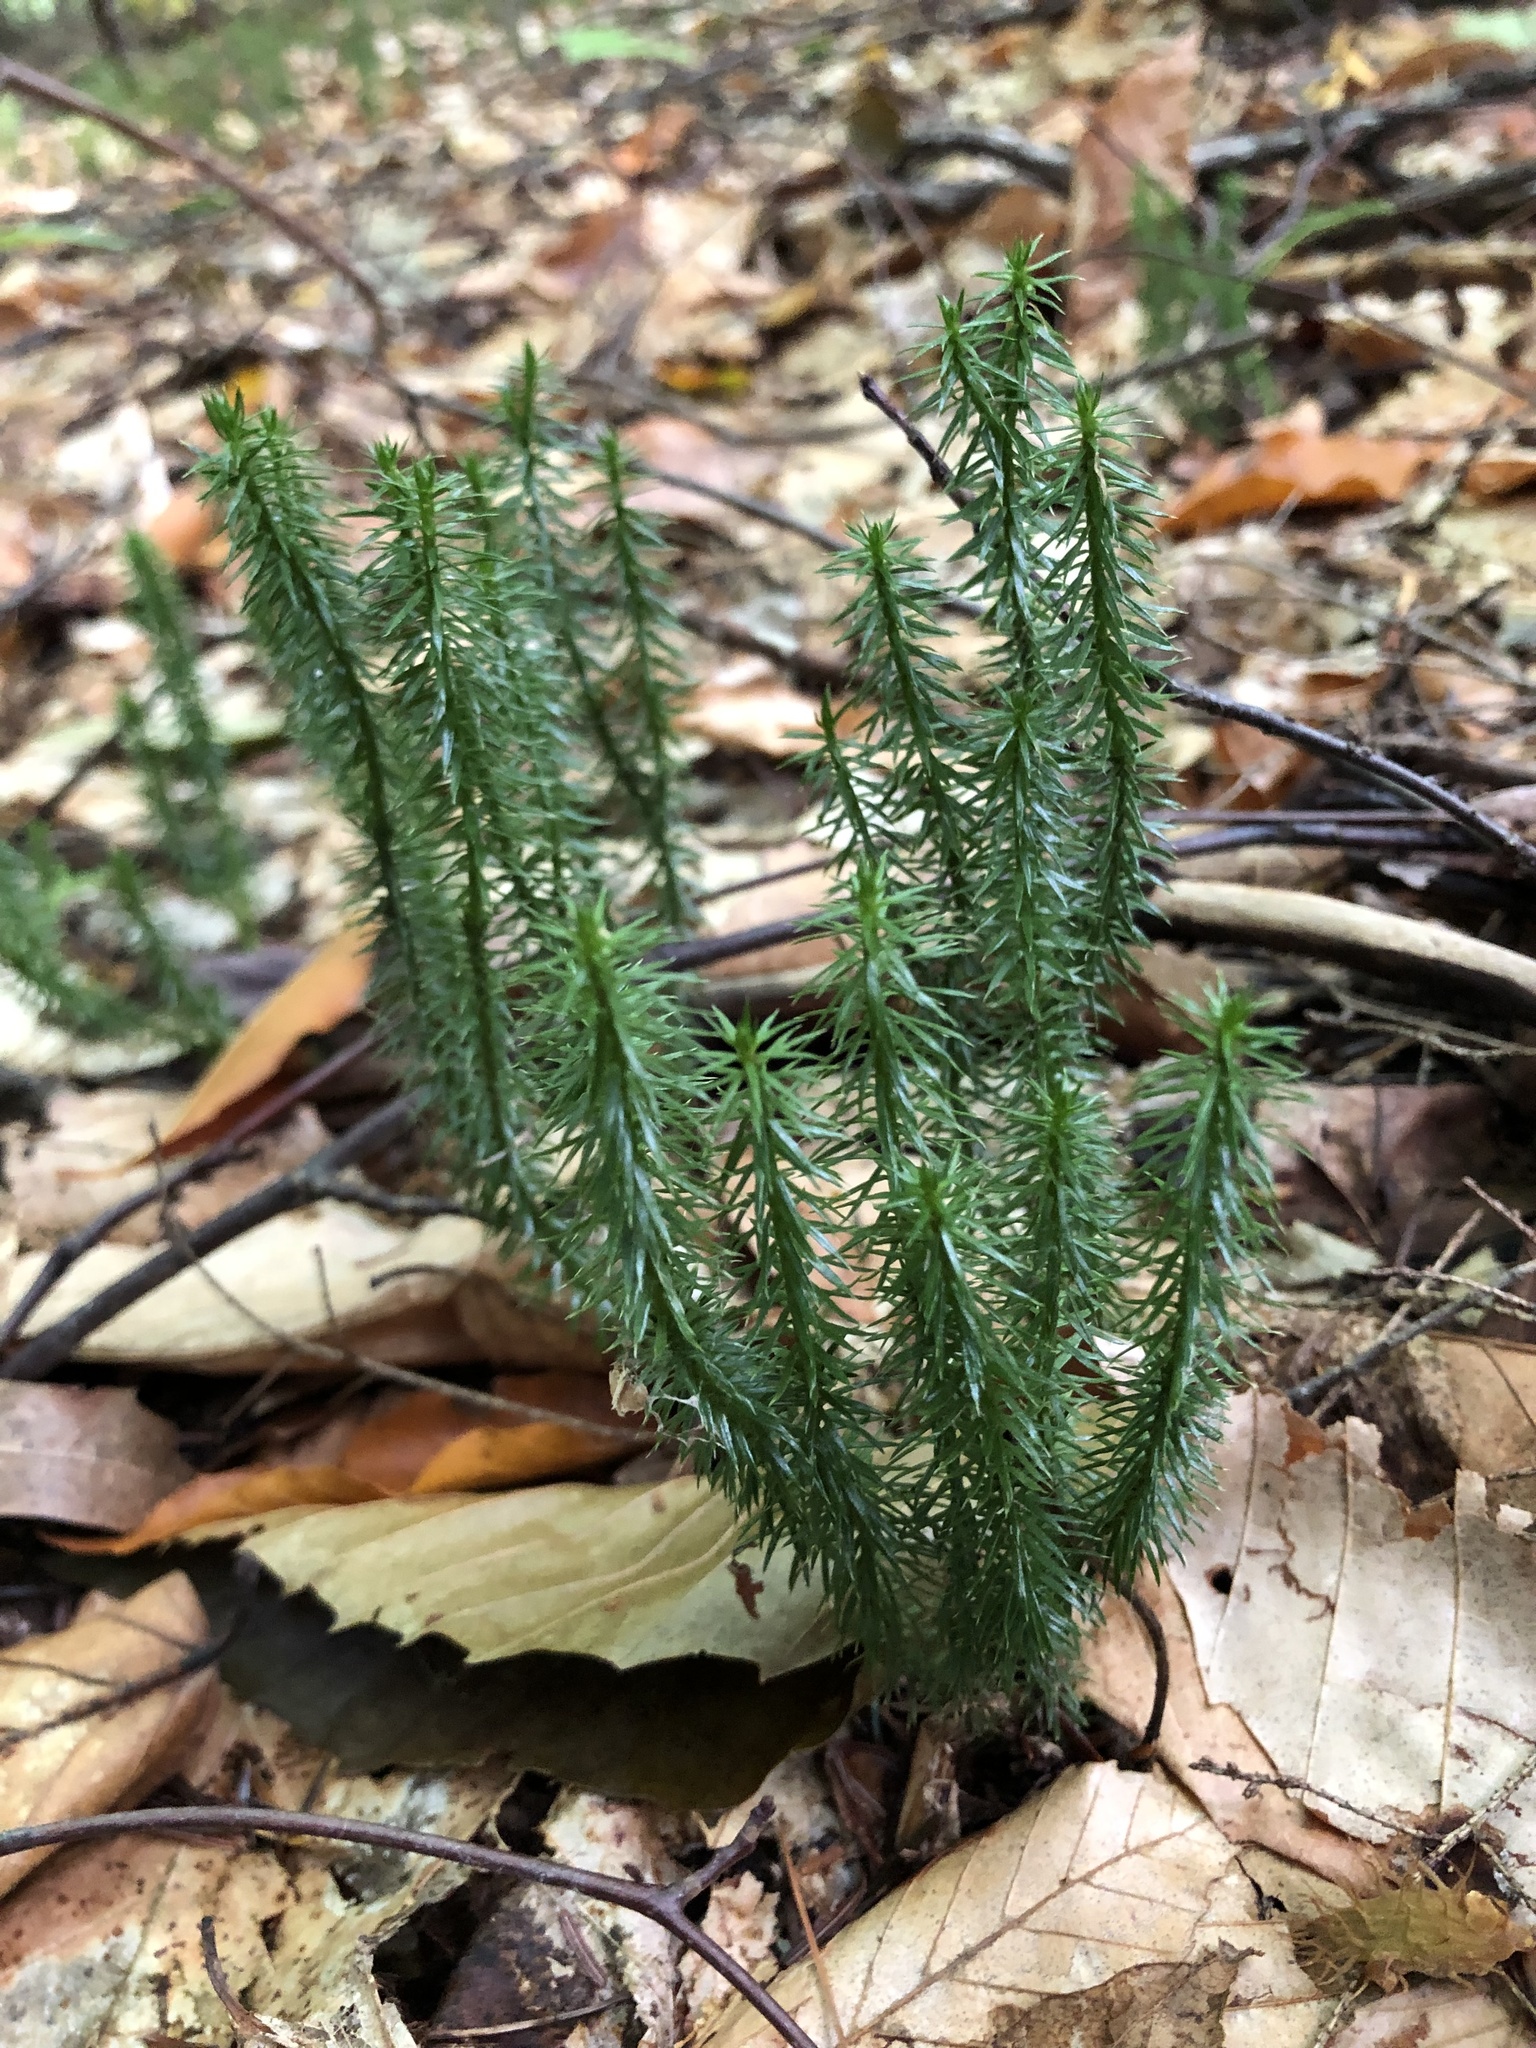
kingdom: Plantae
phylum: Tracheophyta
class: Lycopodiopsida
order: Lycopodiales
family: Lycopodiaceae
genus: Spinulum
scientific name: Spinulum annotinum
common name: Interrupted club-moss
